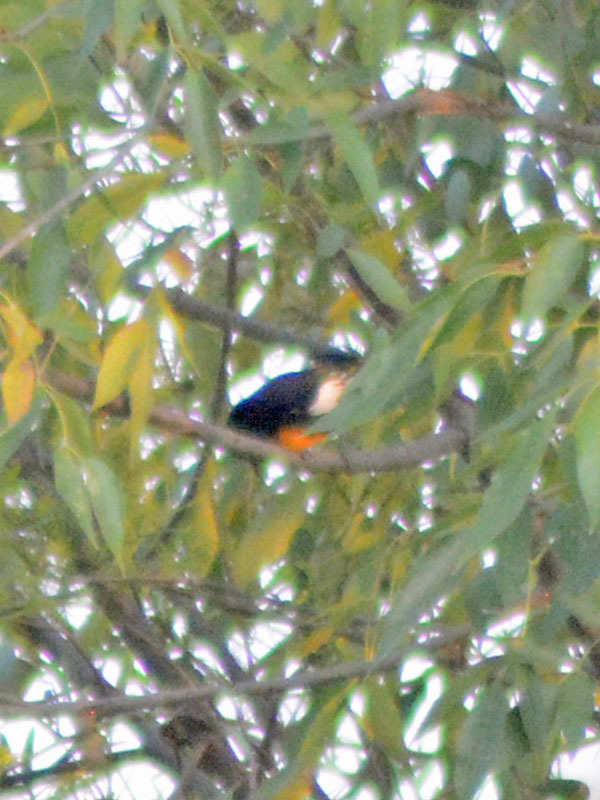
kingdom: Animalia
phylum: Chordata
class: Aves
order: Passeriformes
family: Icteridae
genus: Icterus
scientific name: Icterus abeillei
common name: Black-backed oriole
